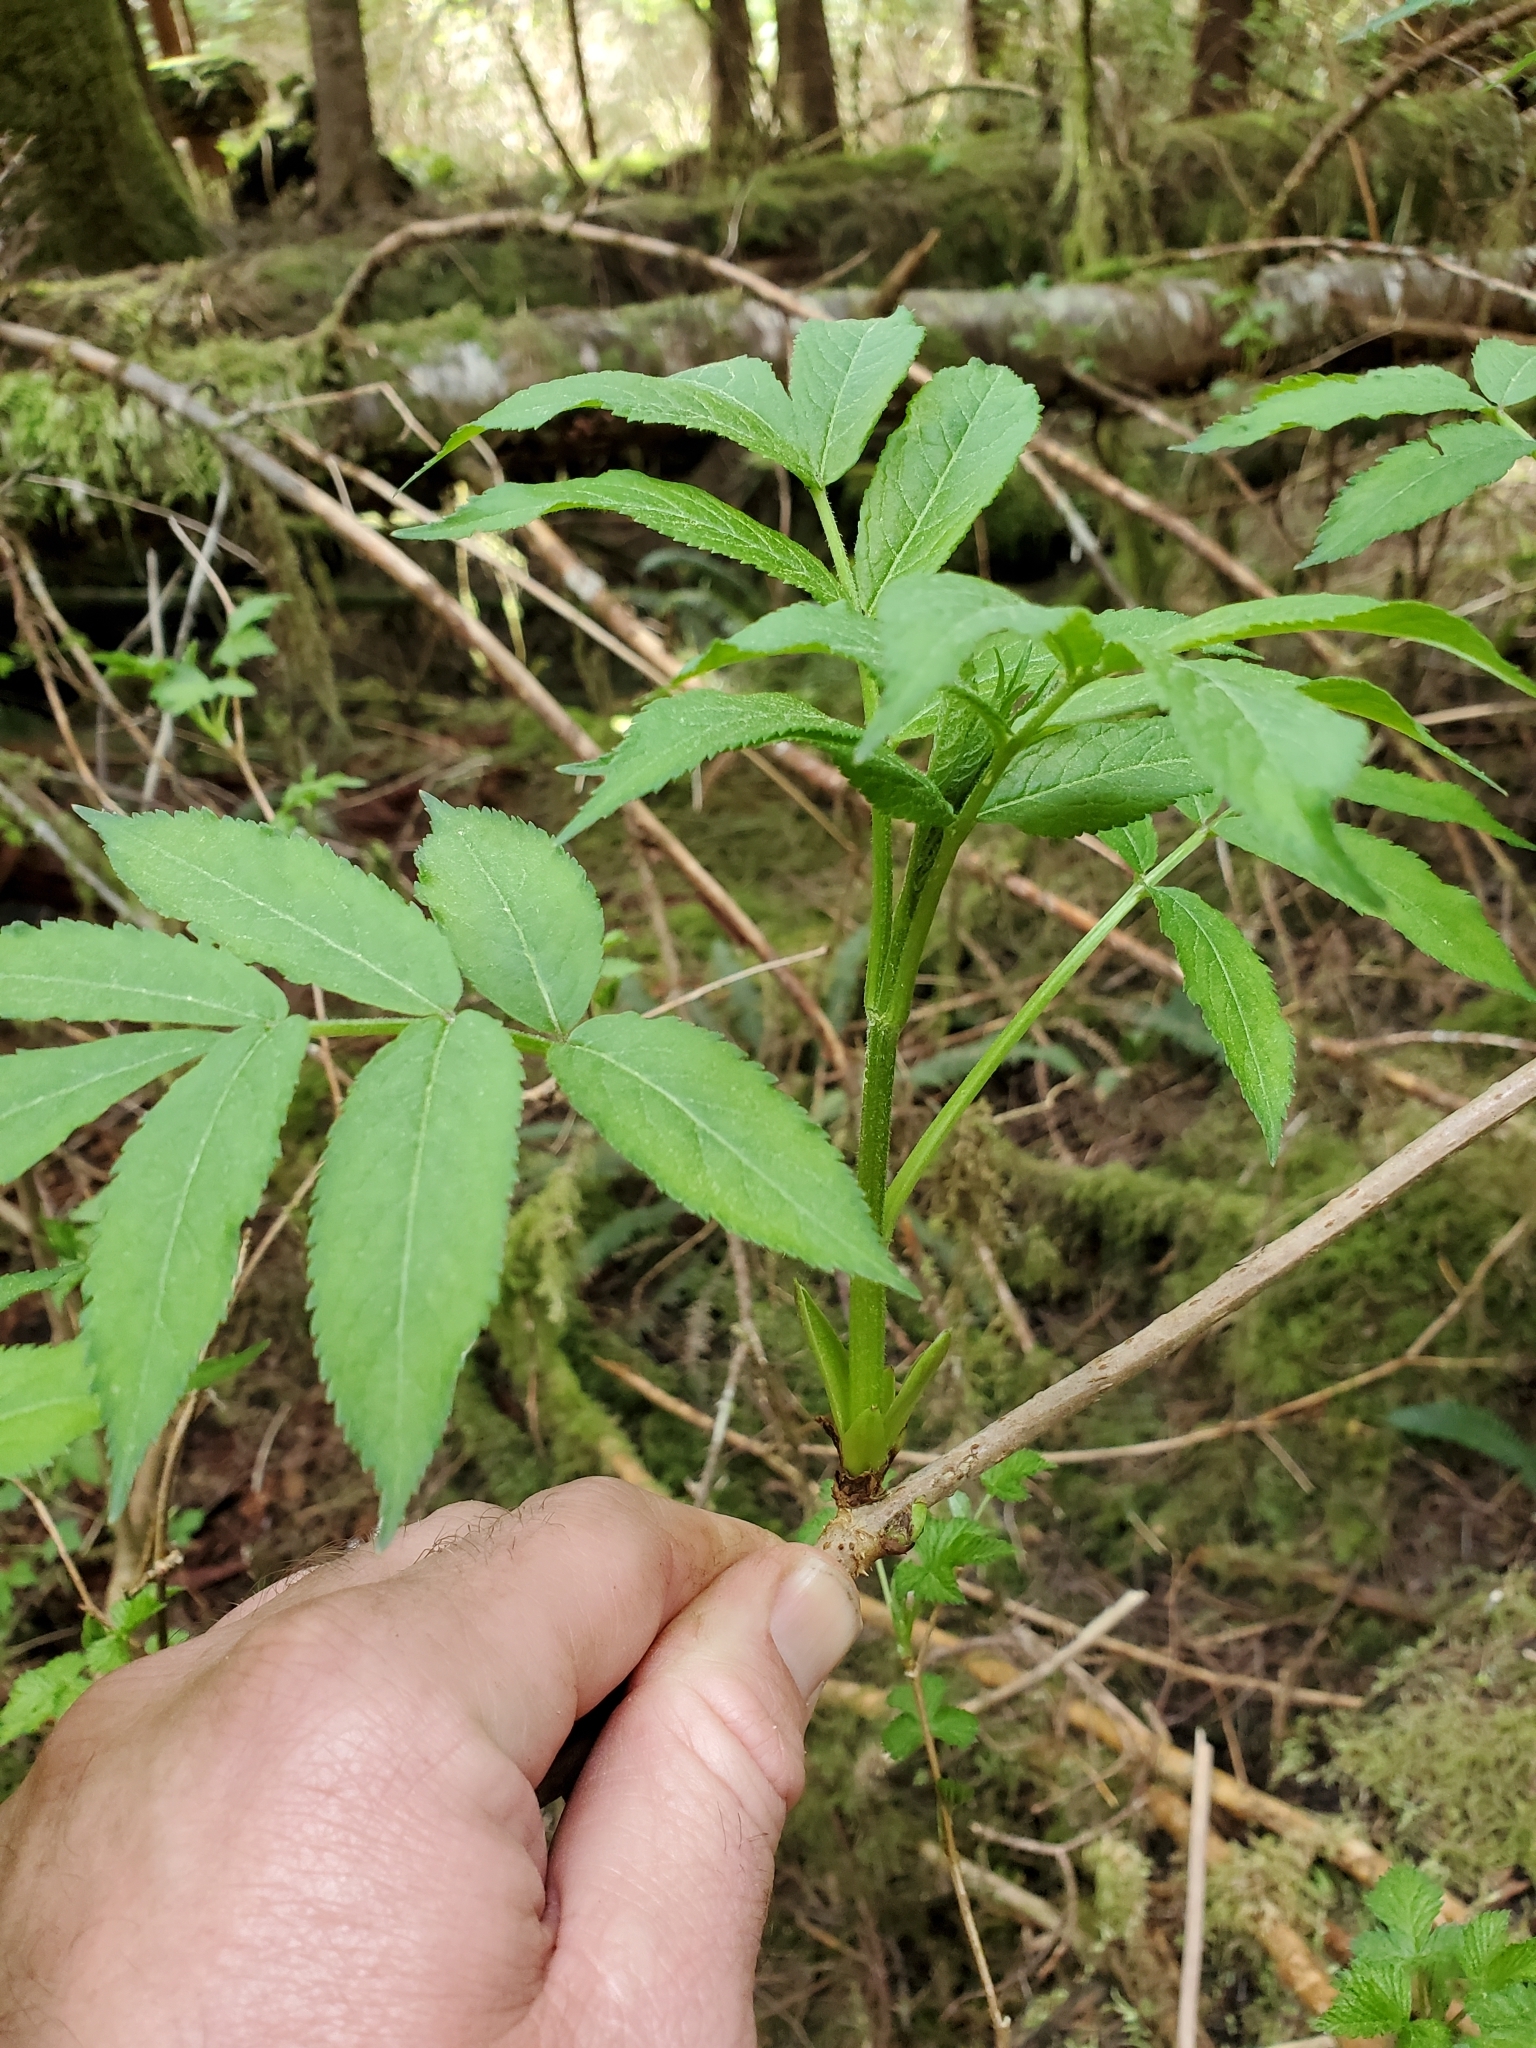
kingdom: Plantae
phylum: Tracheophyta
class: Magnoliopsida
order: Dipsacales
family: Viburnaceae
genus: Sambucus
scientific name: Sambucus racemosa
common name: Red-berried elder
